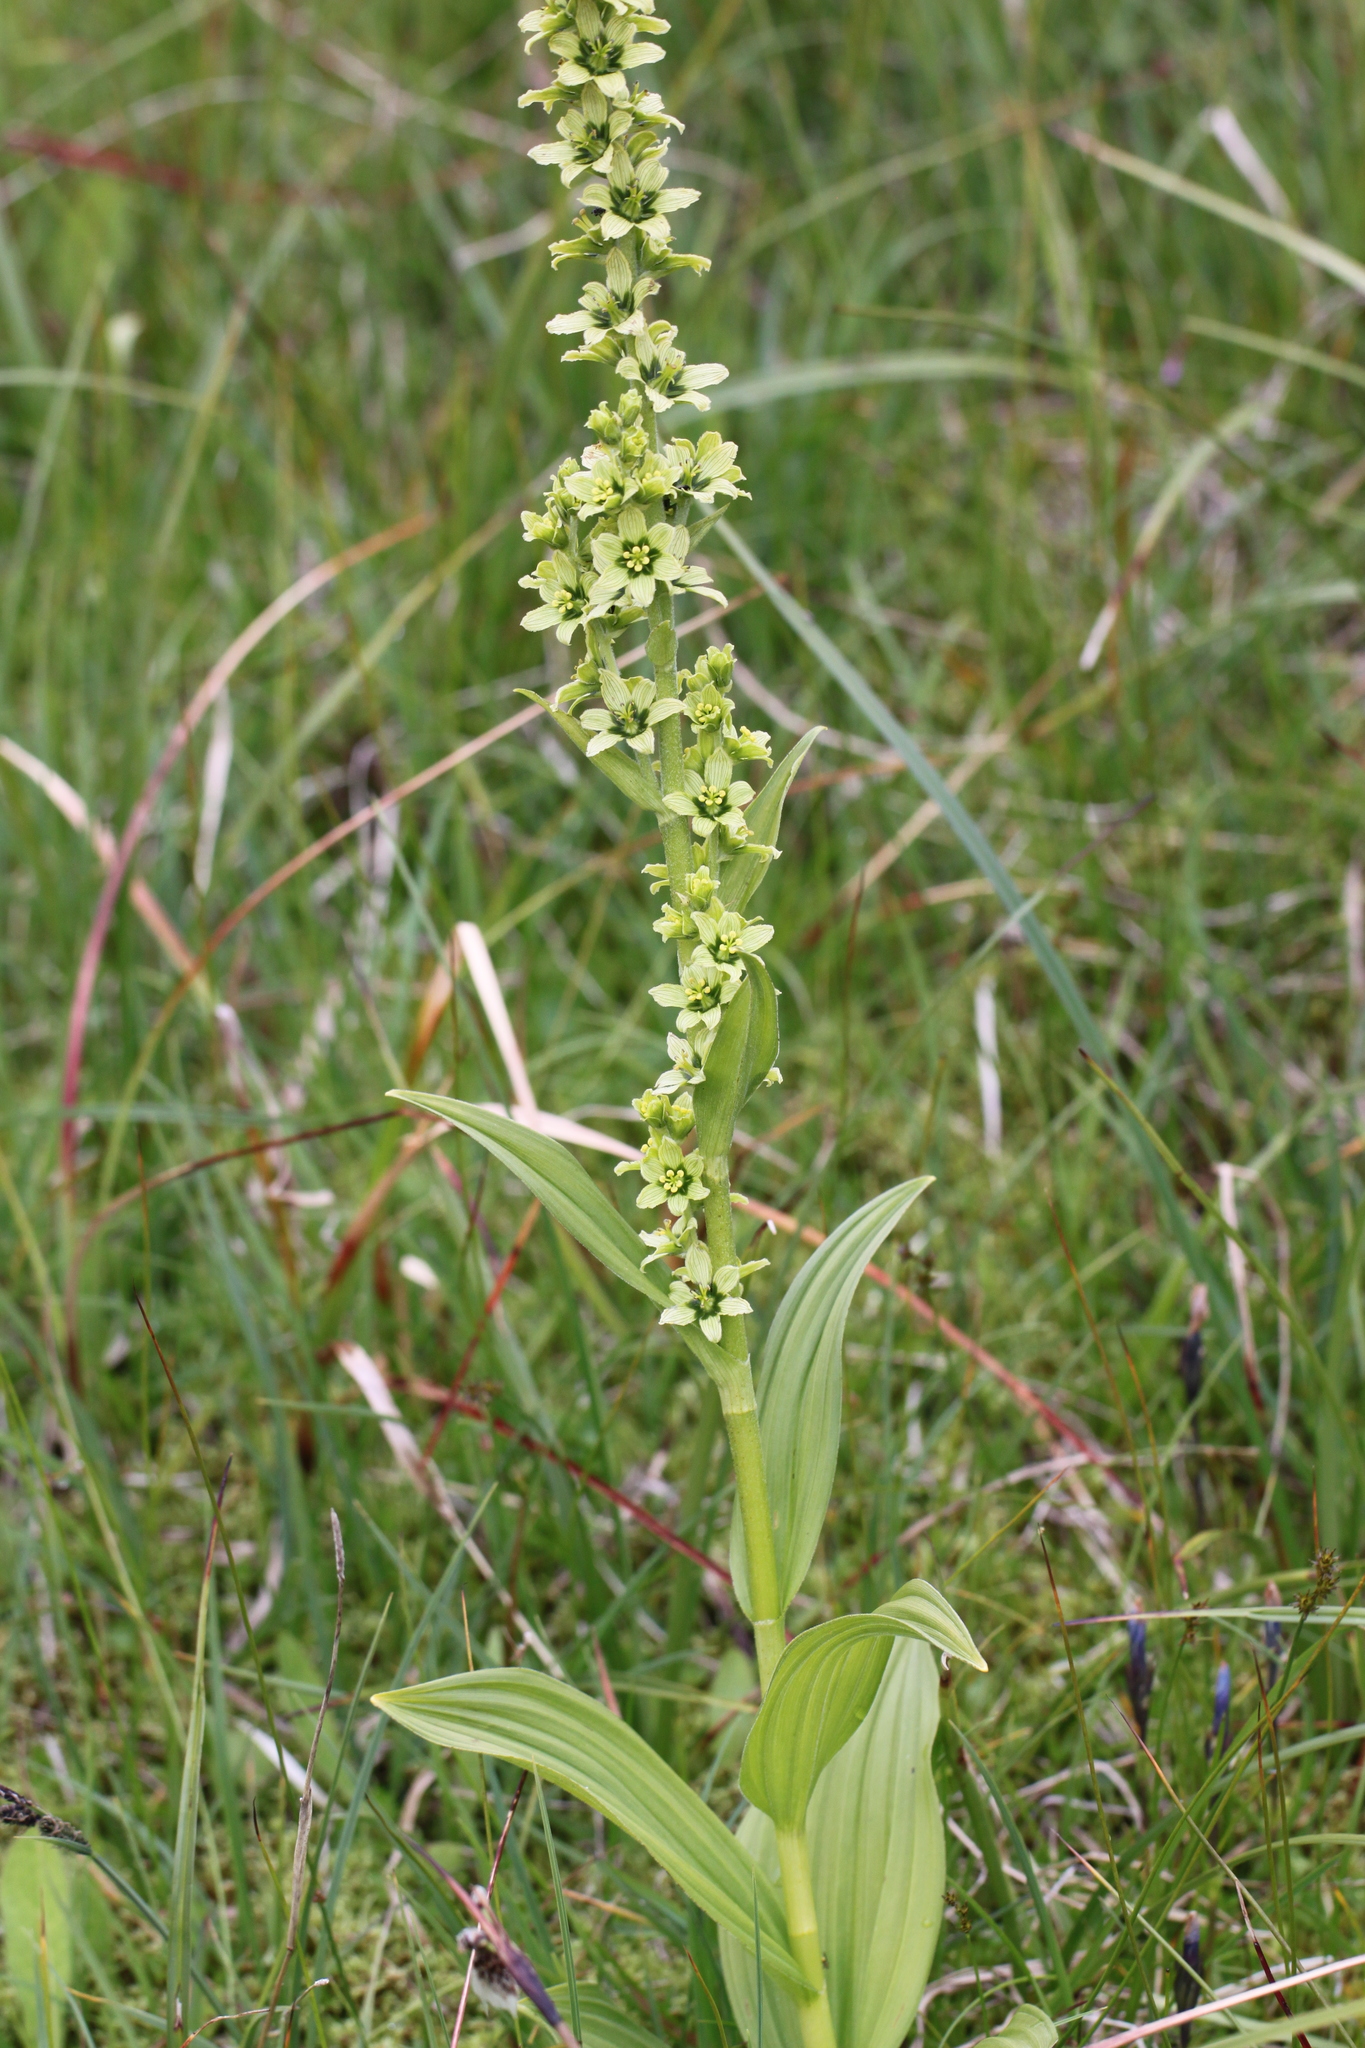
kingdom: Plantae
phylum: Tracheophyta
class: Liliopsida
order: Liliales
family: Melanthiaceae
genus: Veratrum
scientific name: Veratrum album
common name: White veratrum
